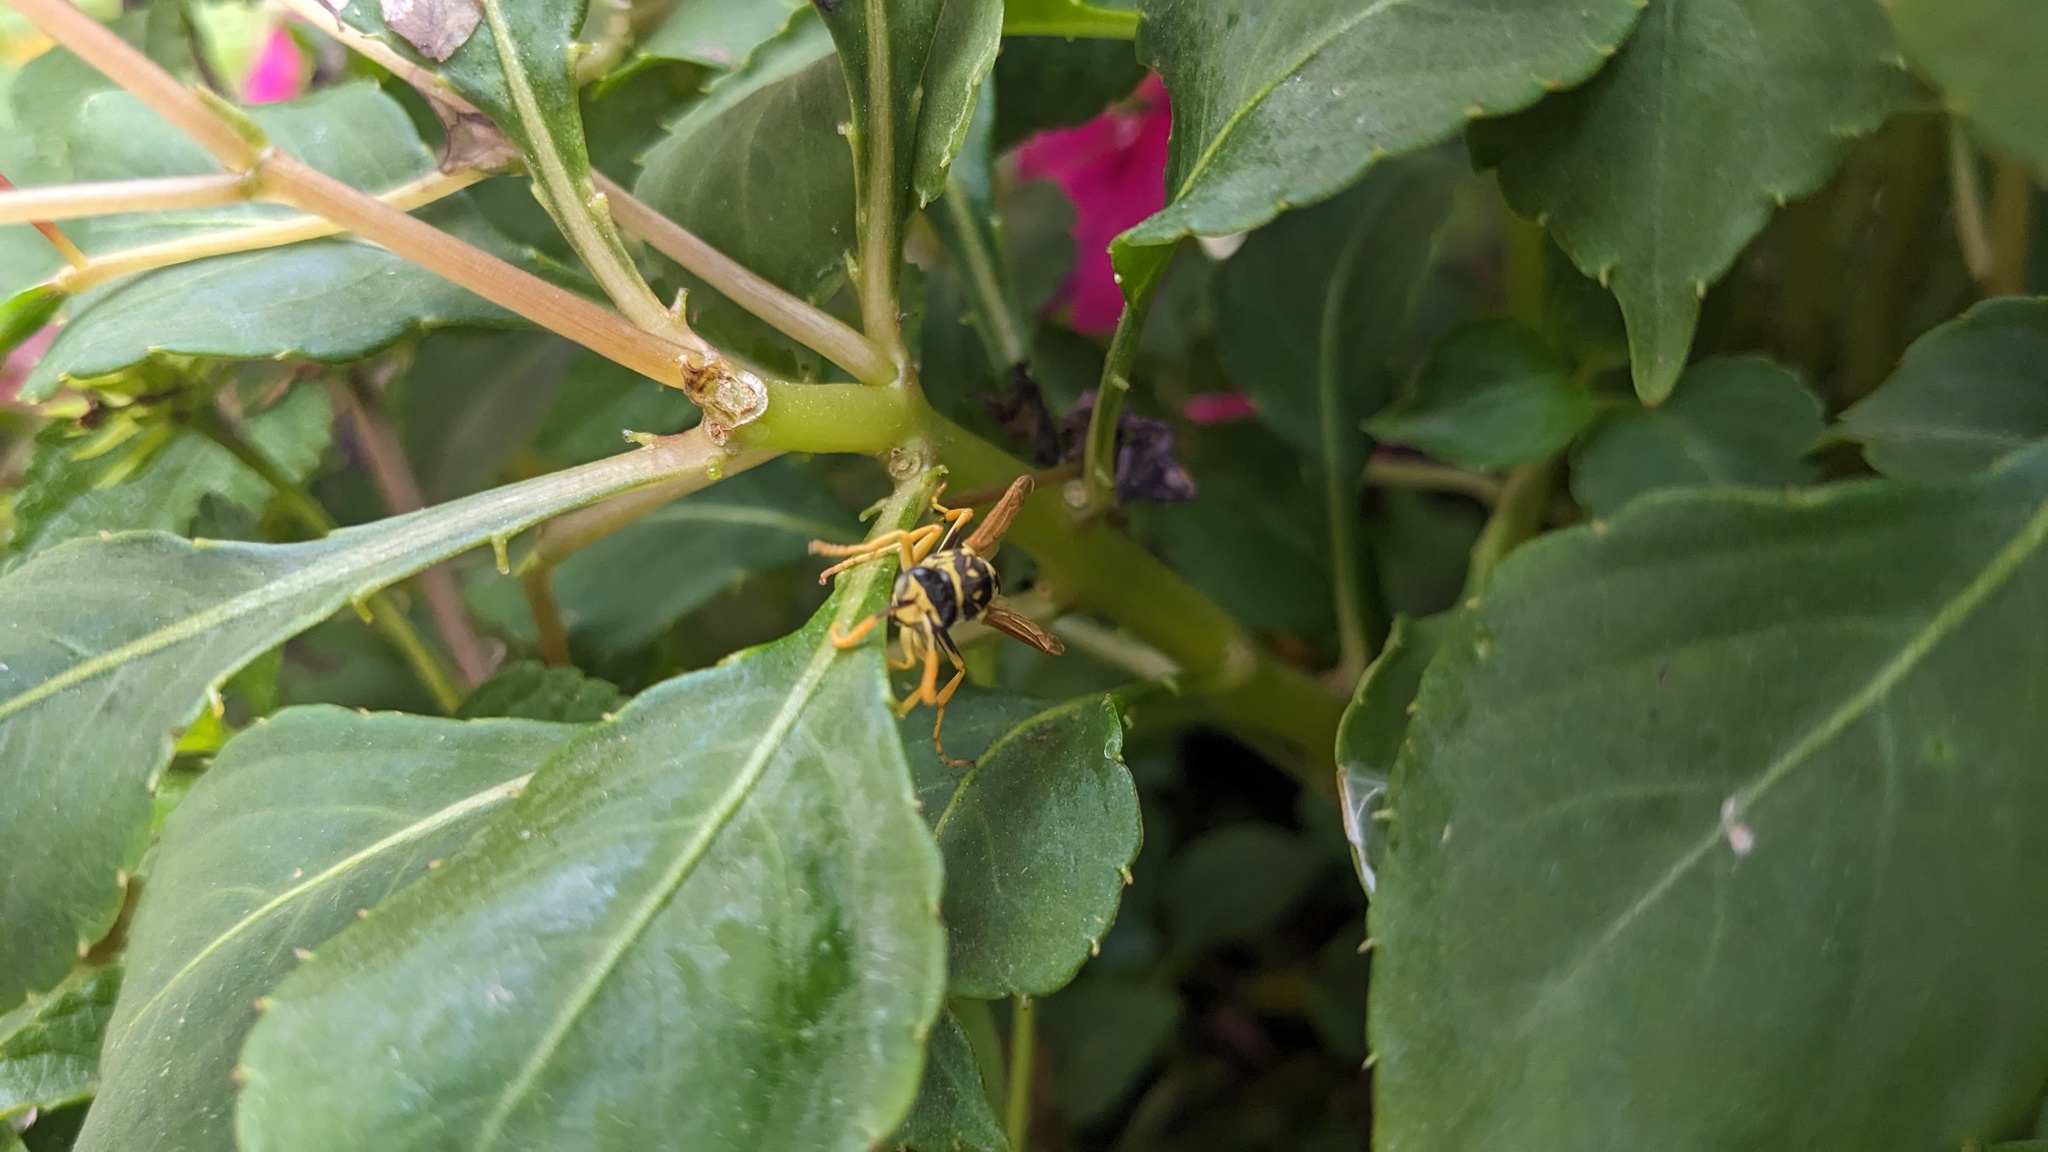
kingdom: Animalia
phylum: Arthropoda
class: Insecta
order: Hymenoptera
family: Eumenidae
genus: Polistes
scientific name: Polistes dominula
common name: Paper wasp
